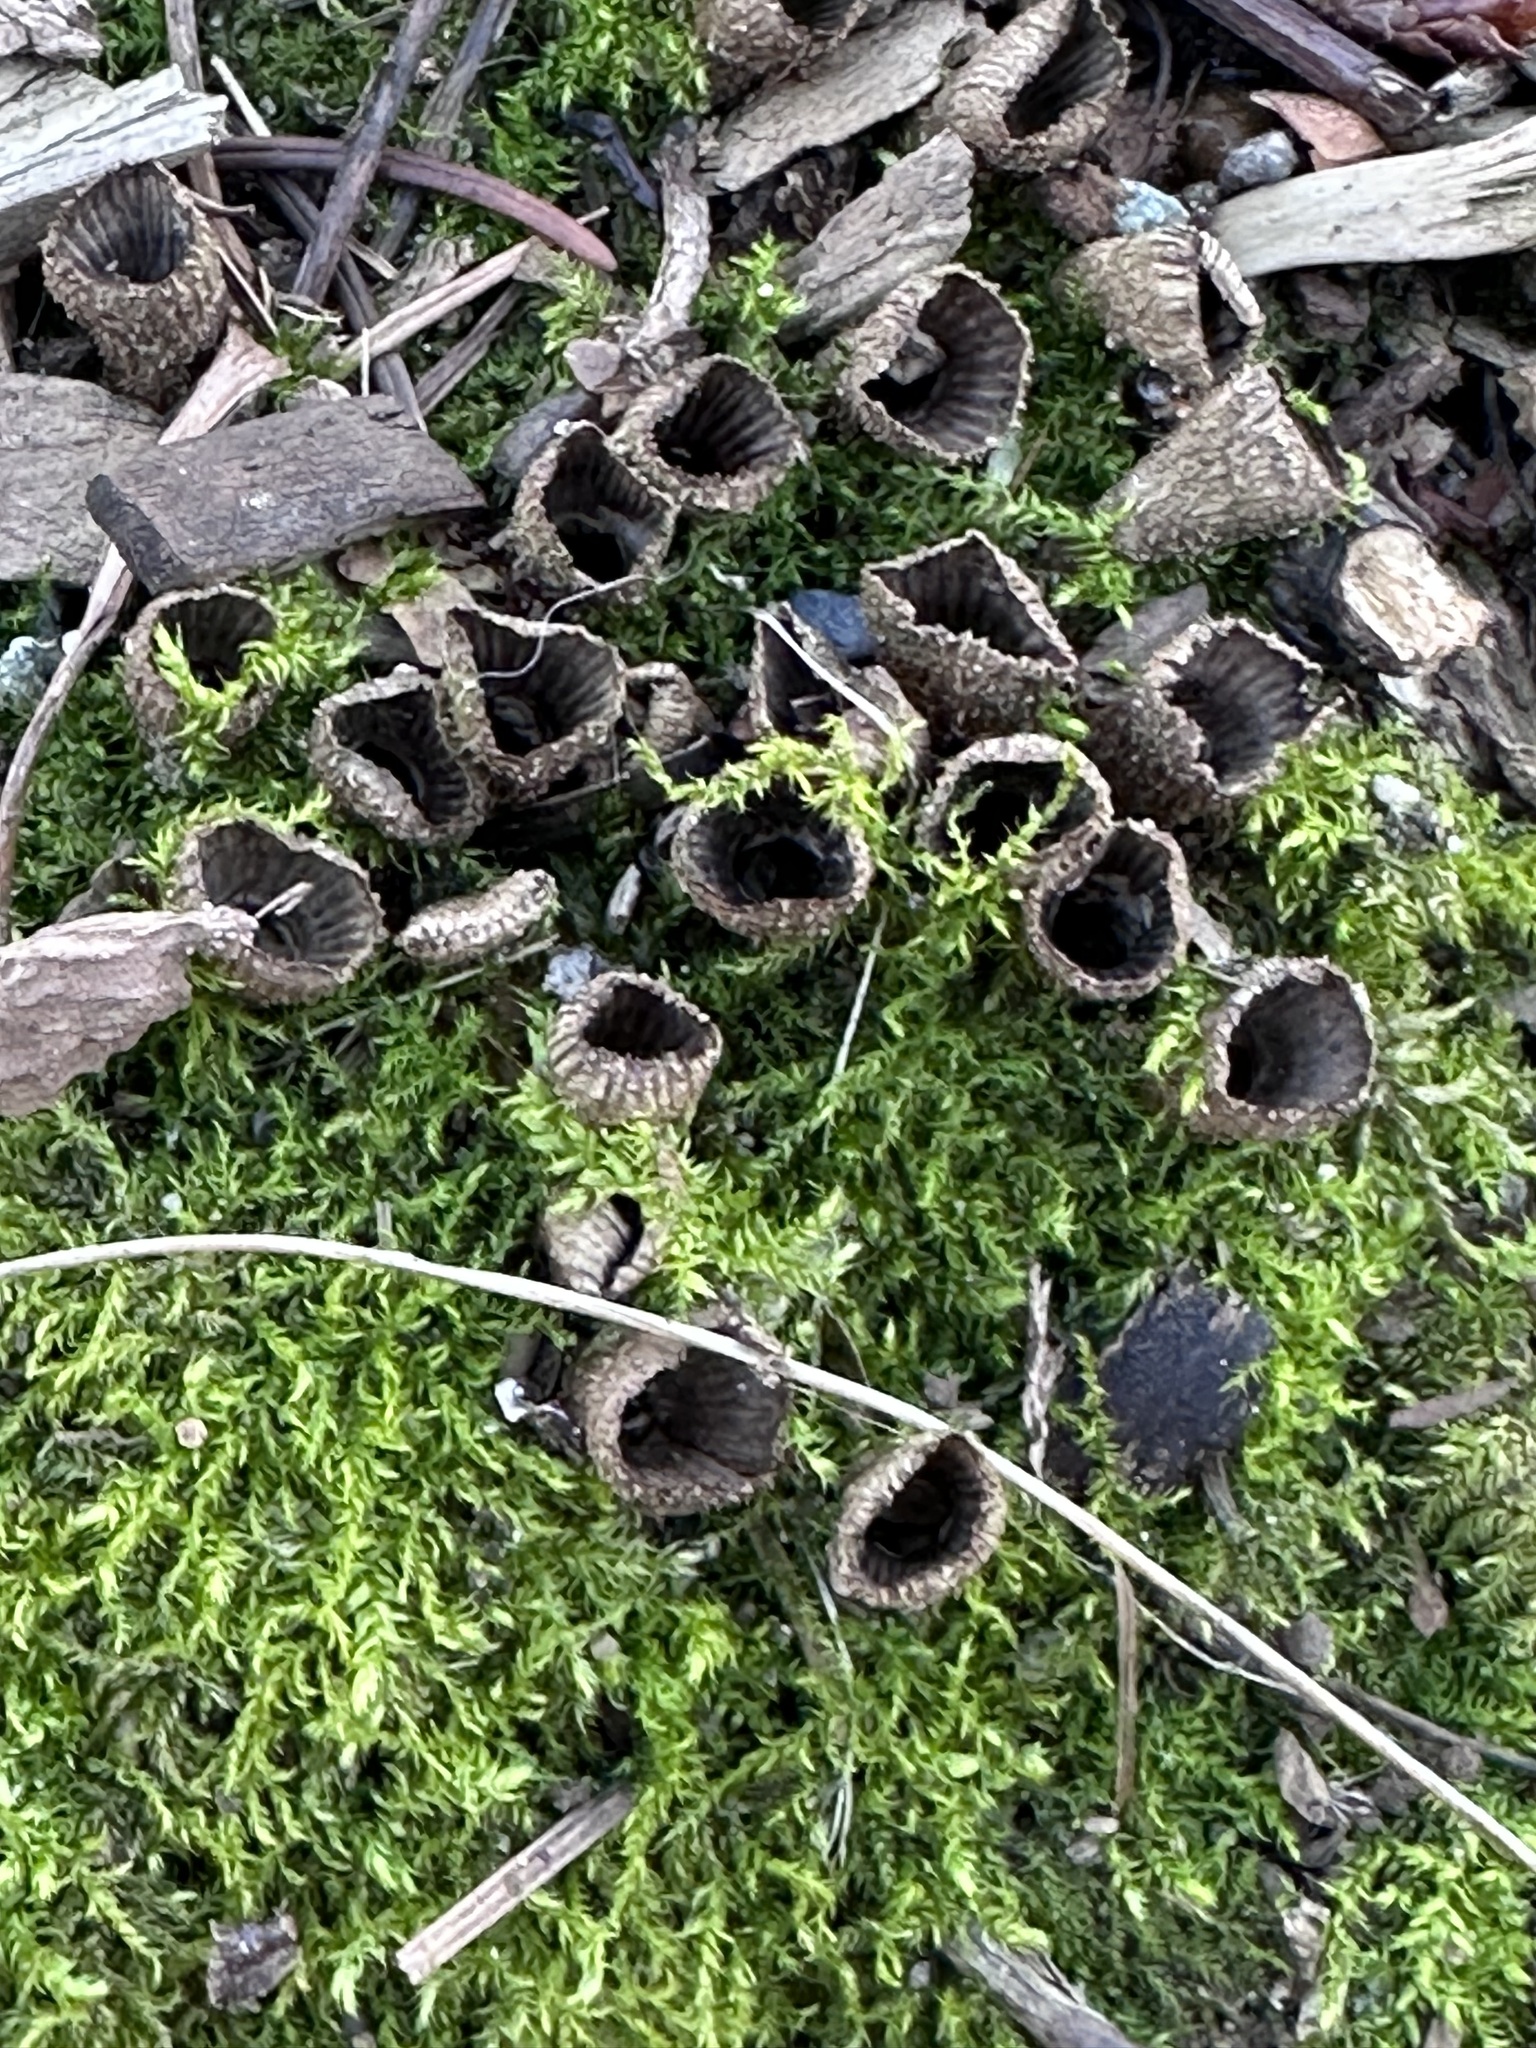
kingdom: Fungi
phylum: Basidiomycota
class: Agaricomycetes
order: Agaricales
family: Agaricaceae
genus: Cyathus
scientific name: Cyathus striatus
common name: Fluted bird's nest
